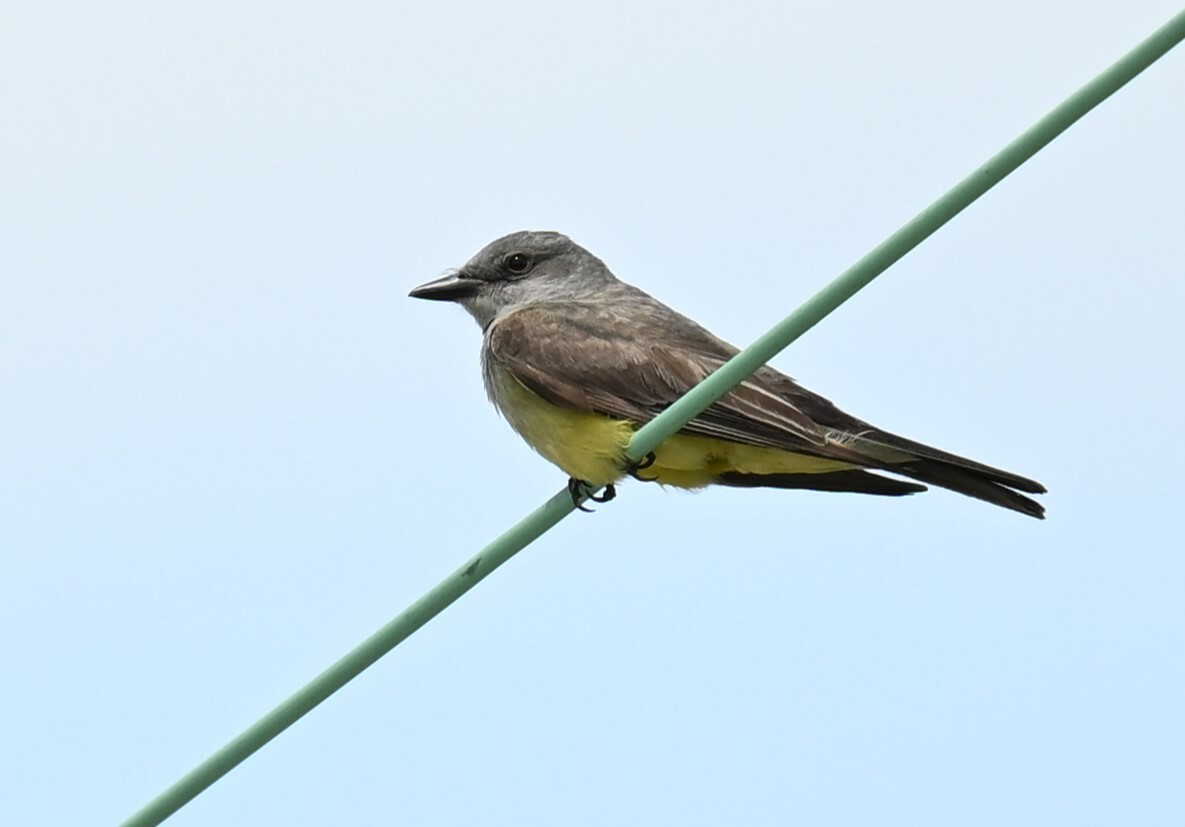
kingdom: Animalia
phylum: Chordata
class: Aves
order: Passeriformes
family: Tyrannidae
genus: Tyrannus
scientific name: Tyrannus verticalis
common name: Western kingbird
